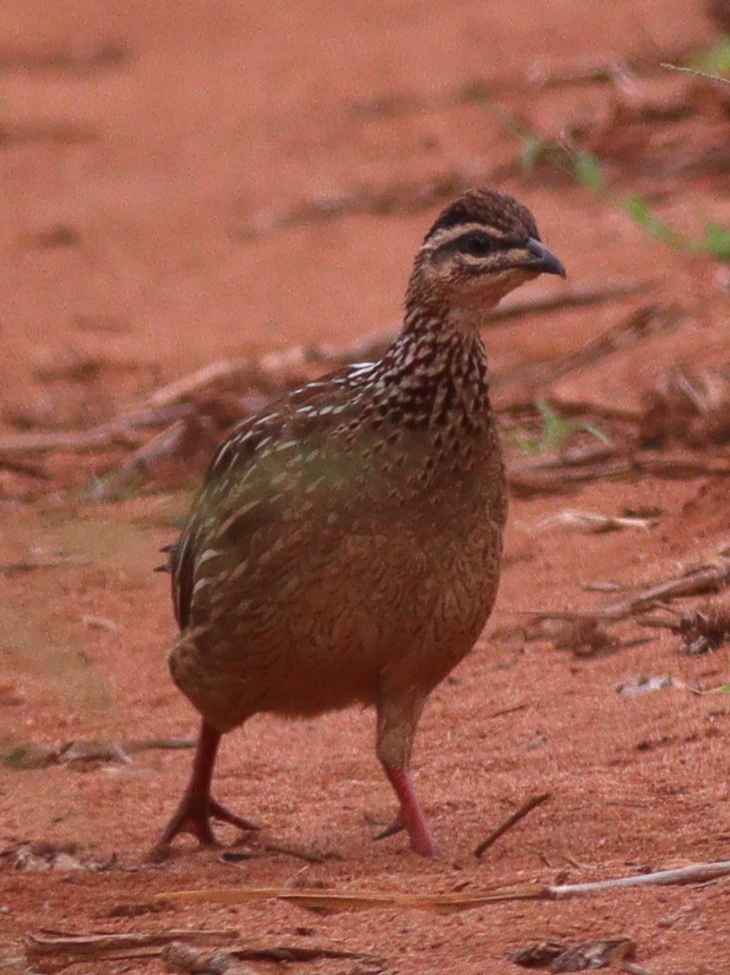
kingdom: Animalia
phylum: Chordata
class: Aves
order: Galliformes
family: Phasianidae
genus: Ortygornis
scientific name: Ortygornis sephaena
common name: Crested francolin
